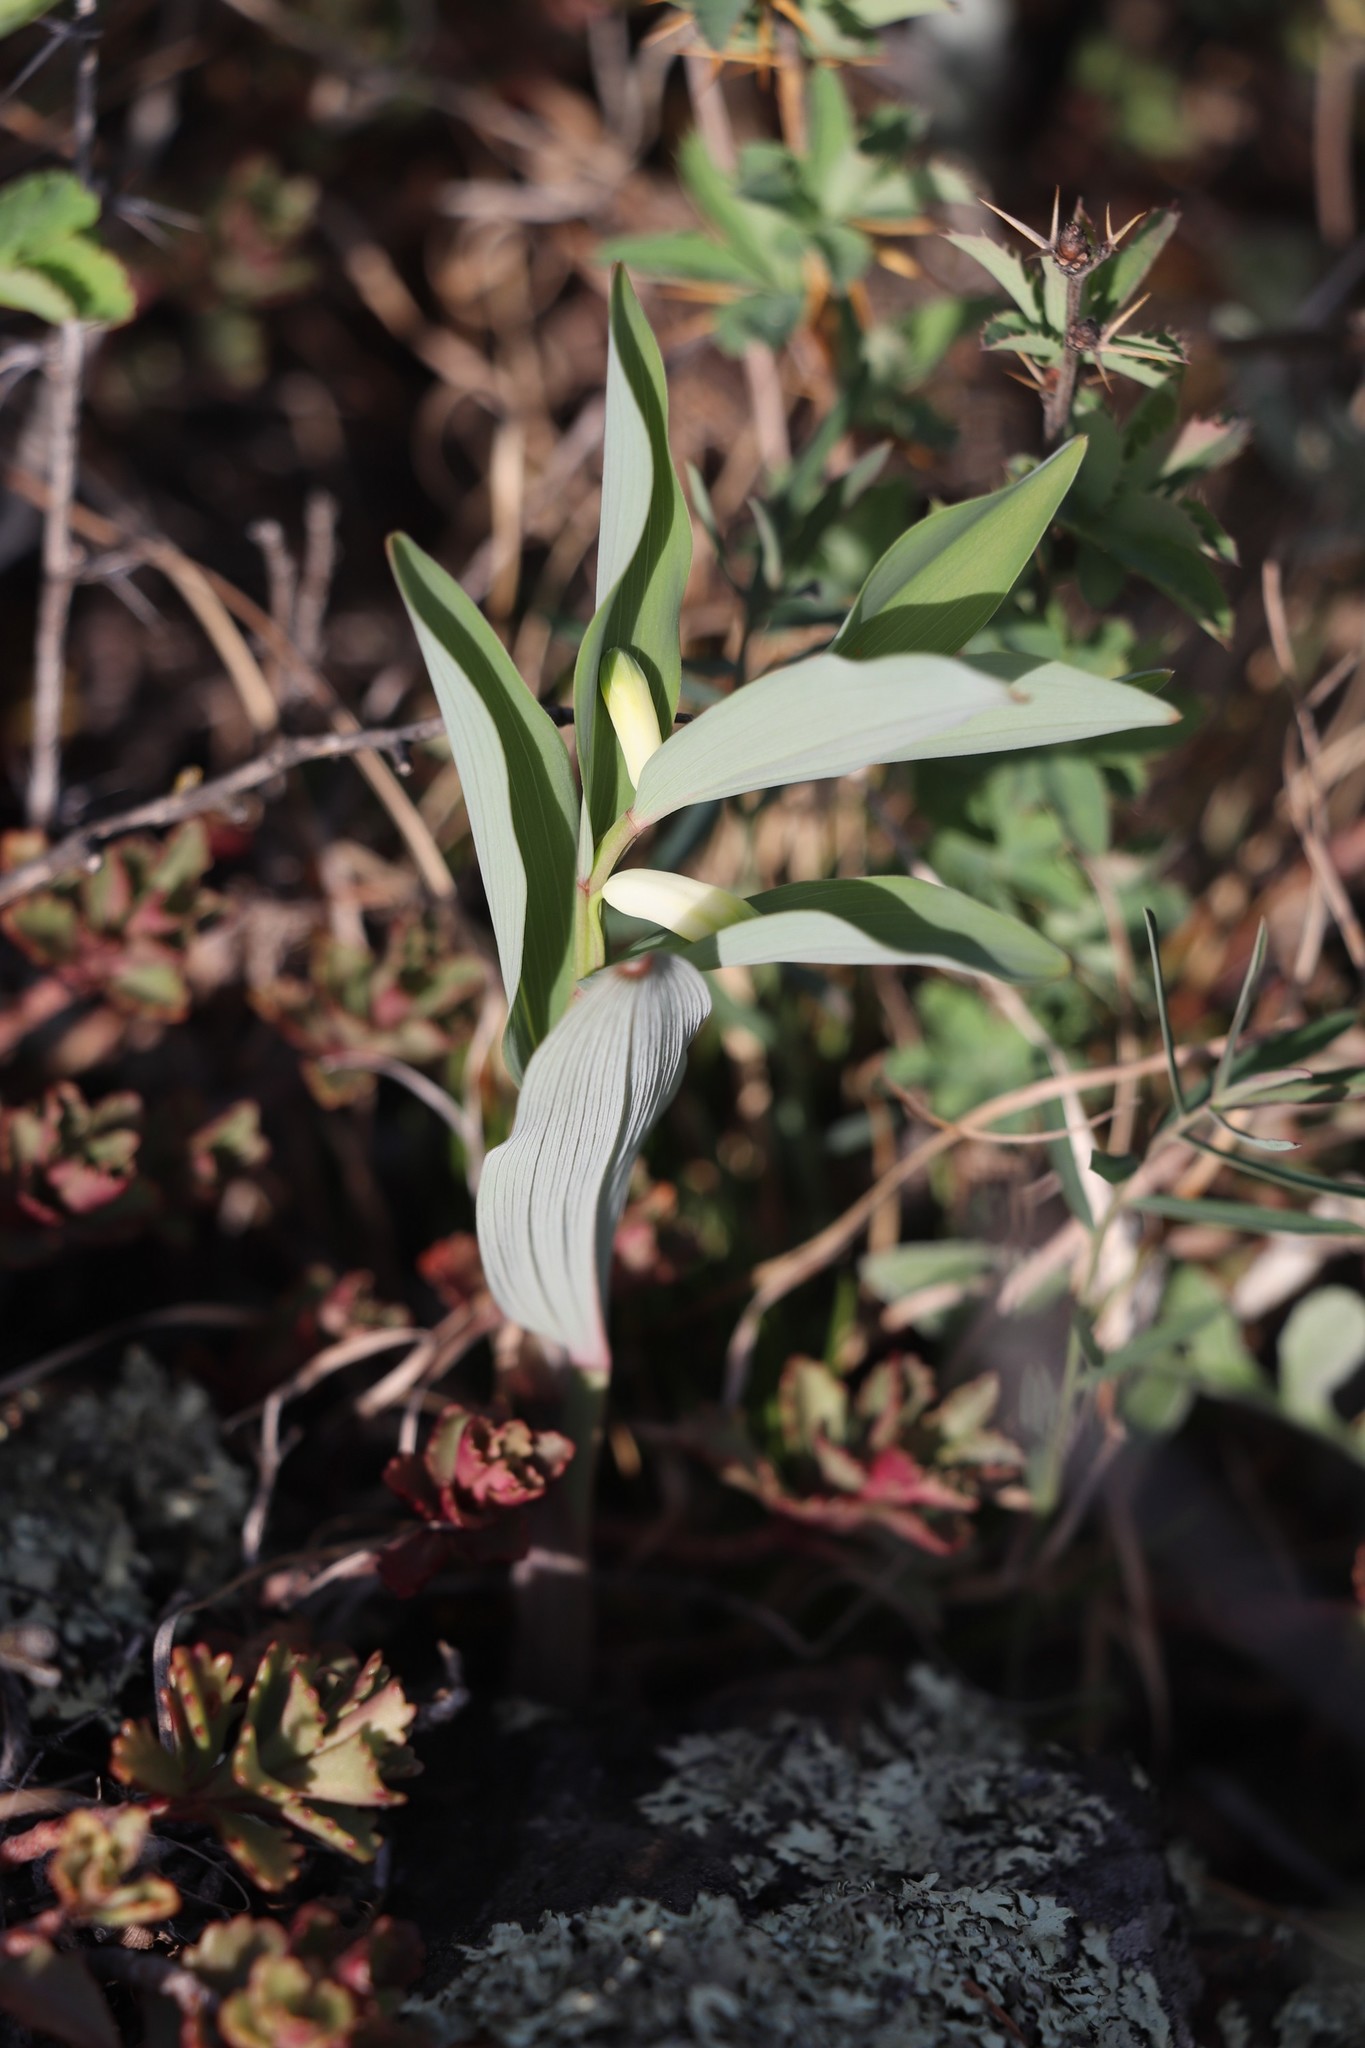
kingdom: Plantae
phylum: Tracheophyta
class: Liliopsida
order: Asparagales
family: Asparagaceae
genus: Polygonatum
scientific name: Polygonatum odoratum
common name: Angular solomon's-seal
